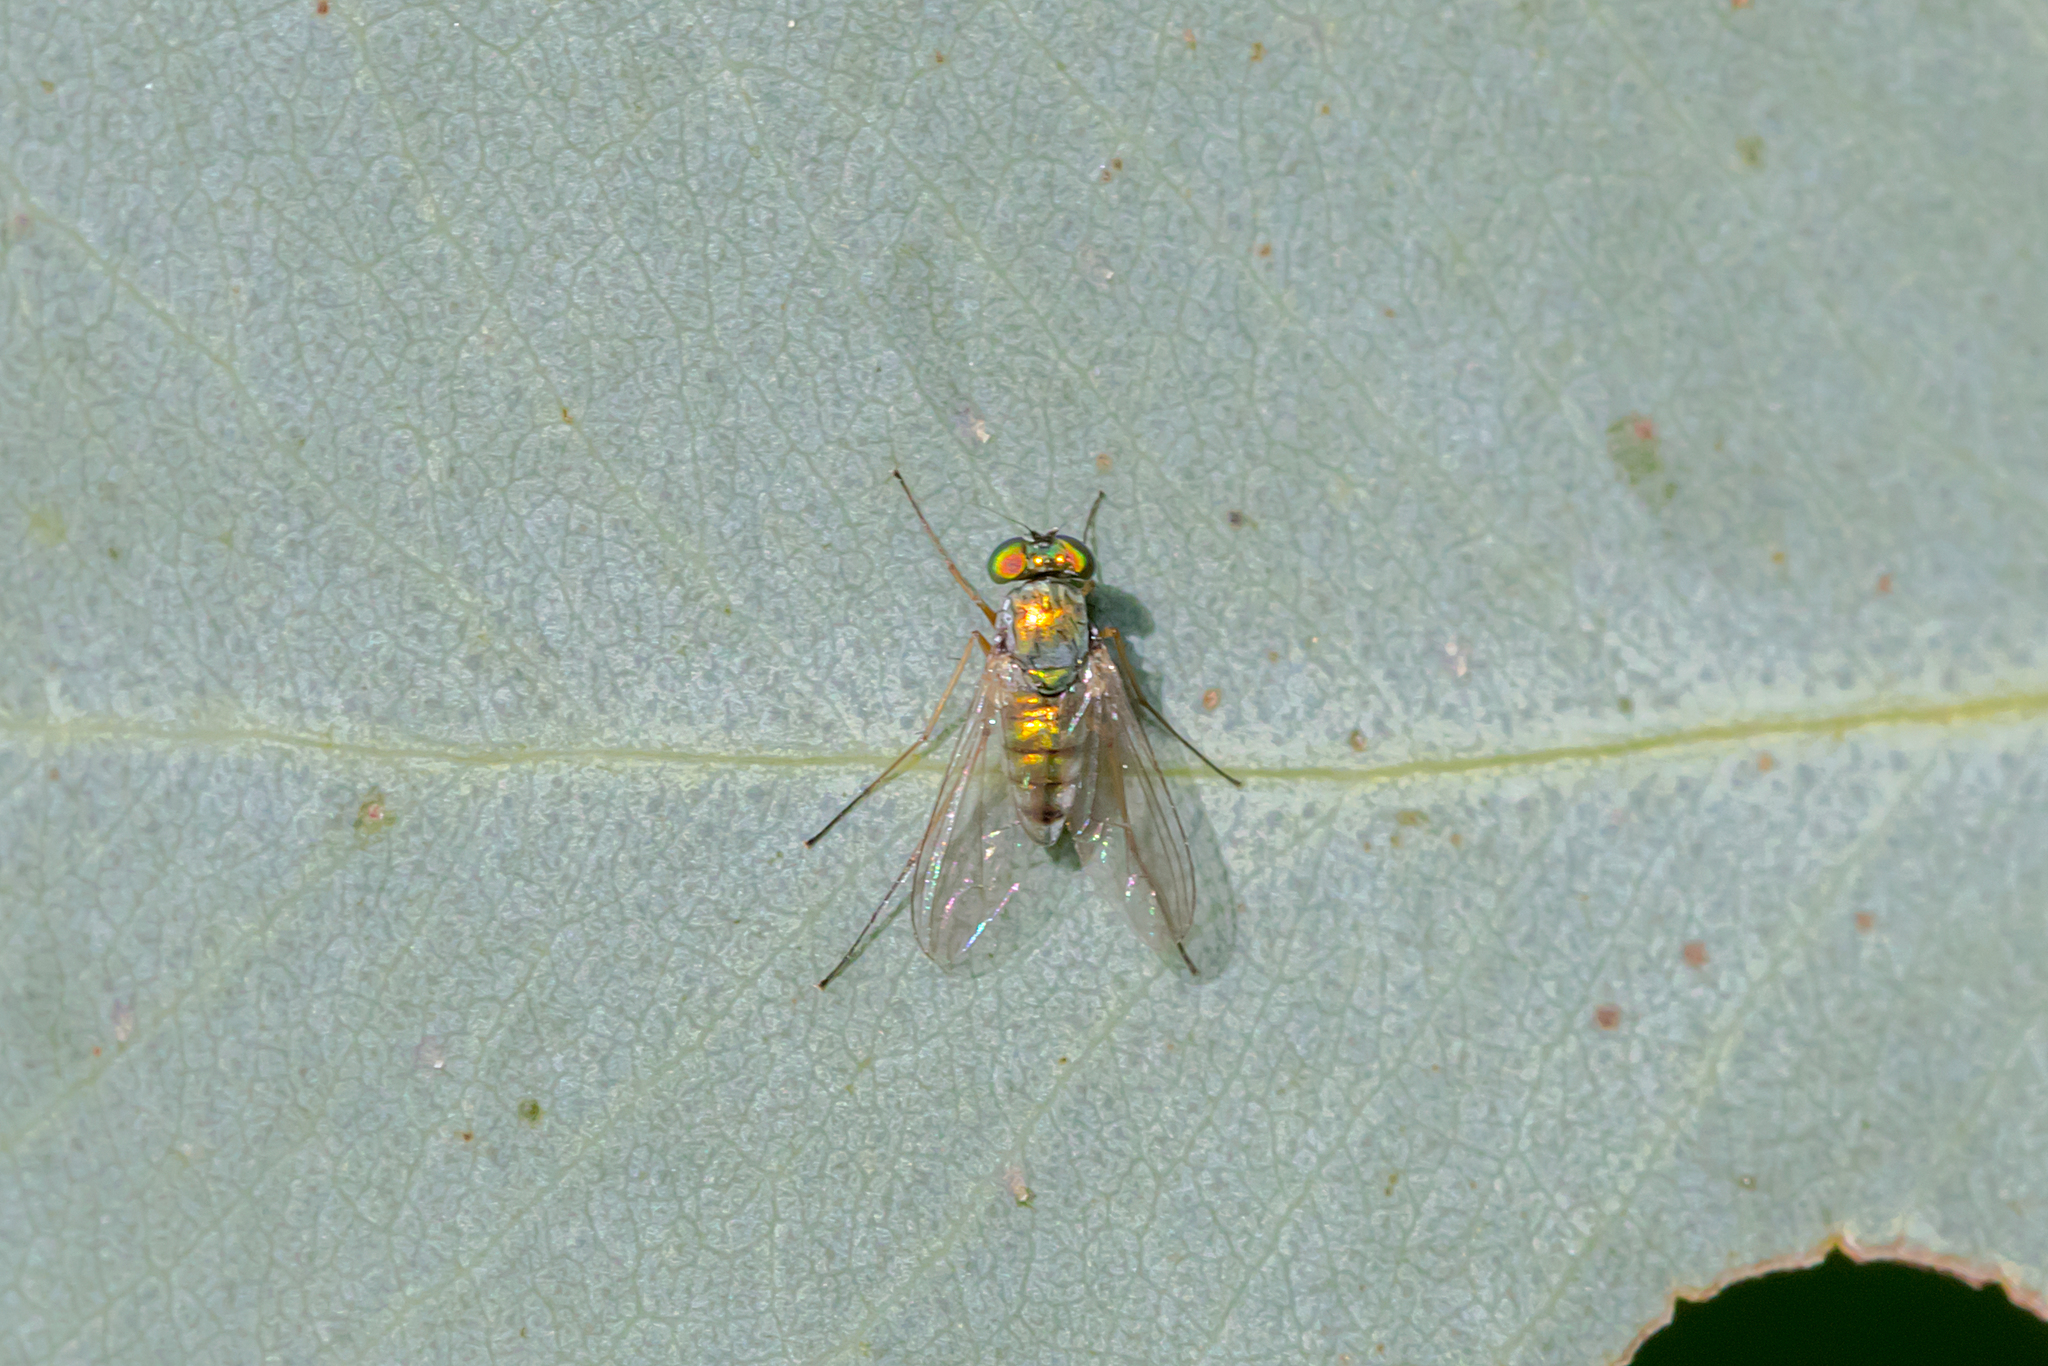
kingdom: Animalia
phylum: Arthropoda
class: Insecta
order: Diptera
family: Dolichopodidae
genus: Parentia
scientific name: Parentia dispar
